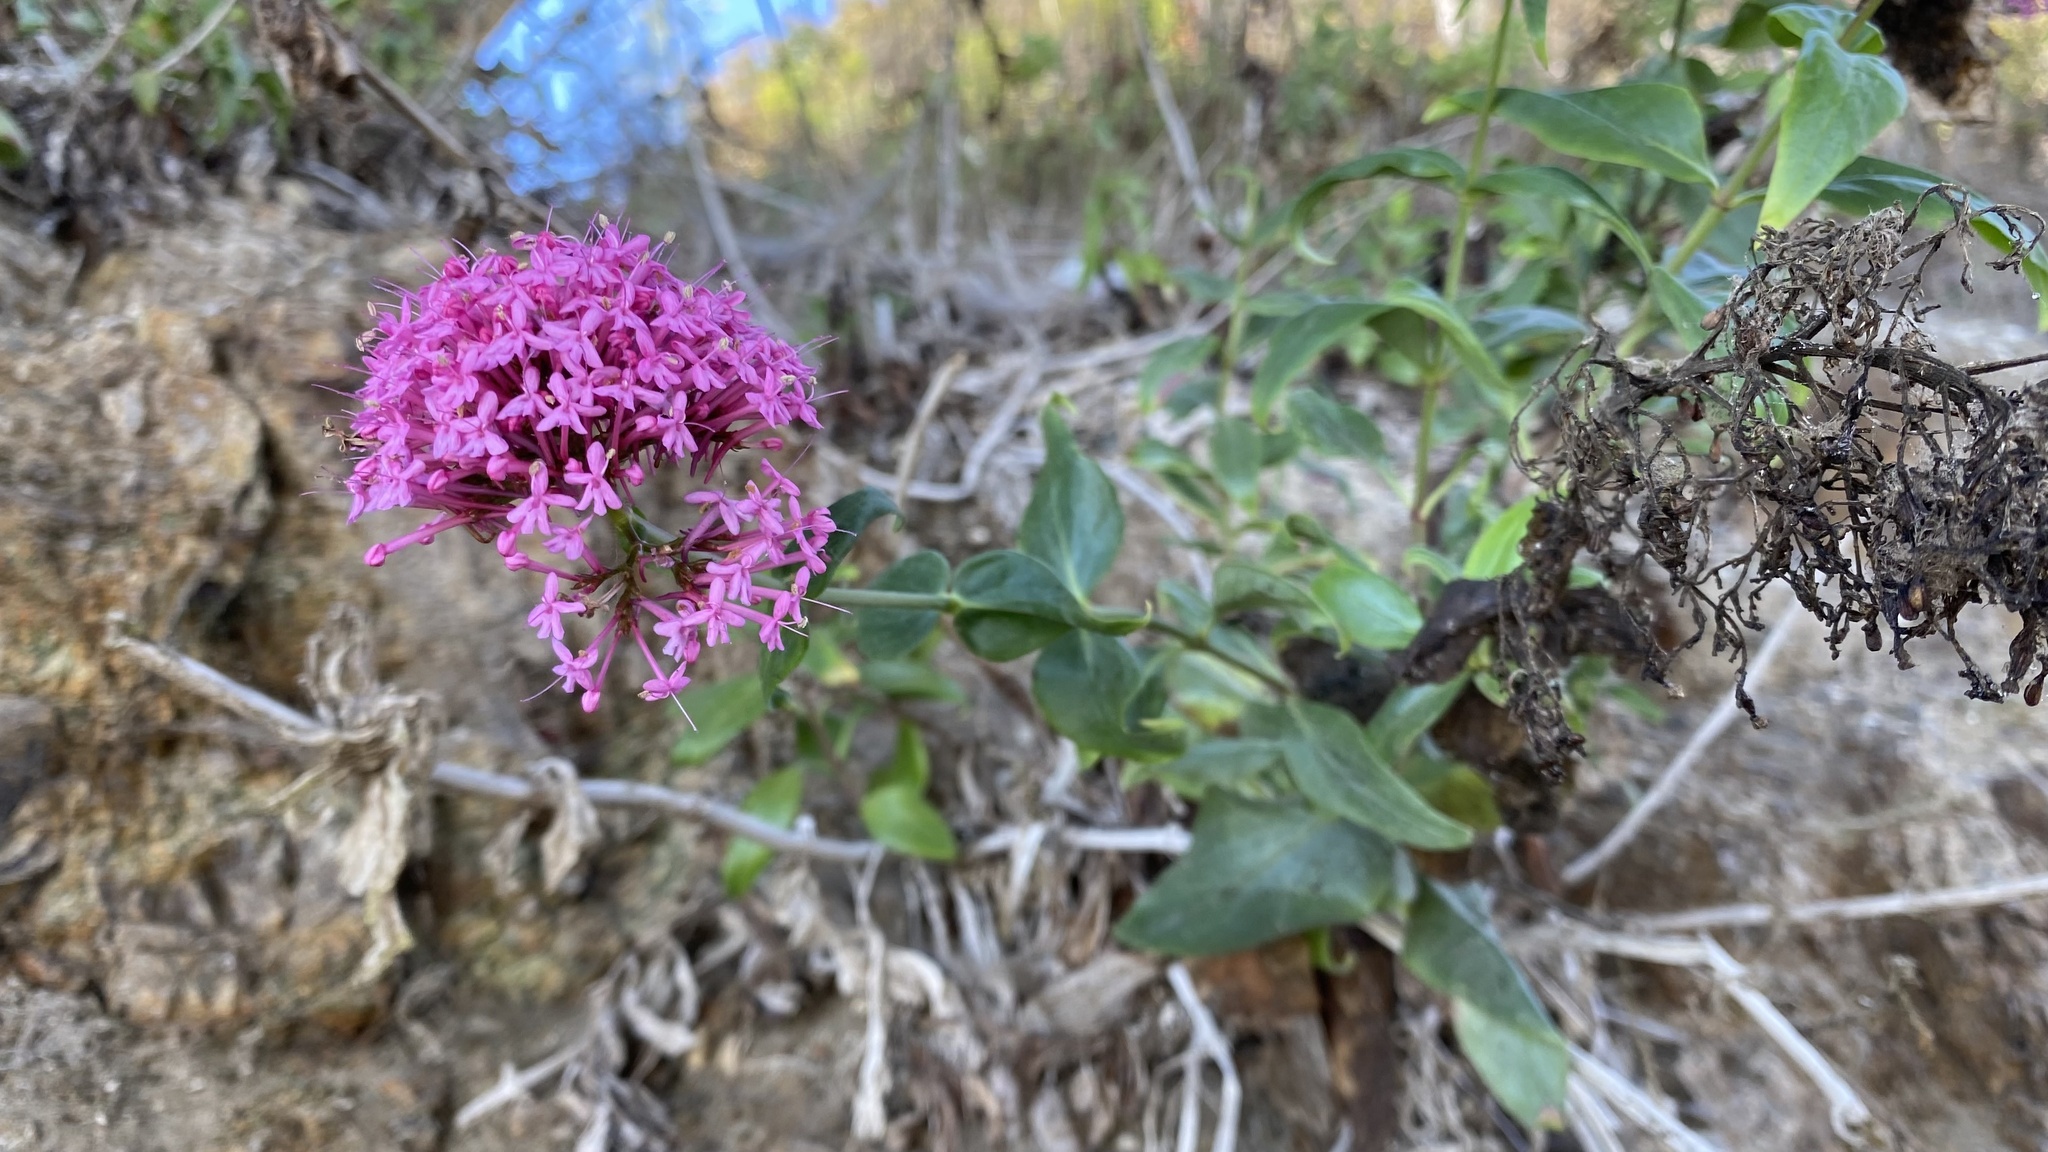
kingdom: Plantae
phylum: Tracheophyta
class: Magnoliopsida
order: Dipsacales
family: Caprifoliaceae
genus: Centranthus
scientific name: Centranthus ruber
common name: Red valerian
